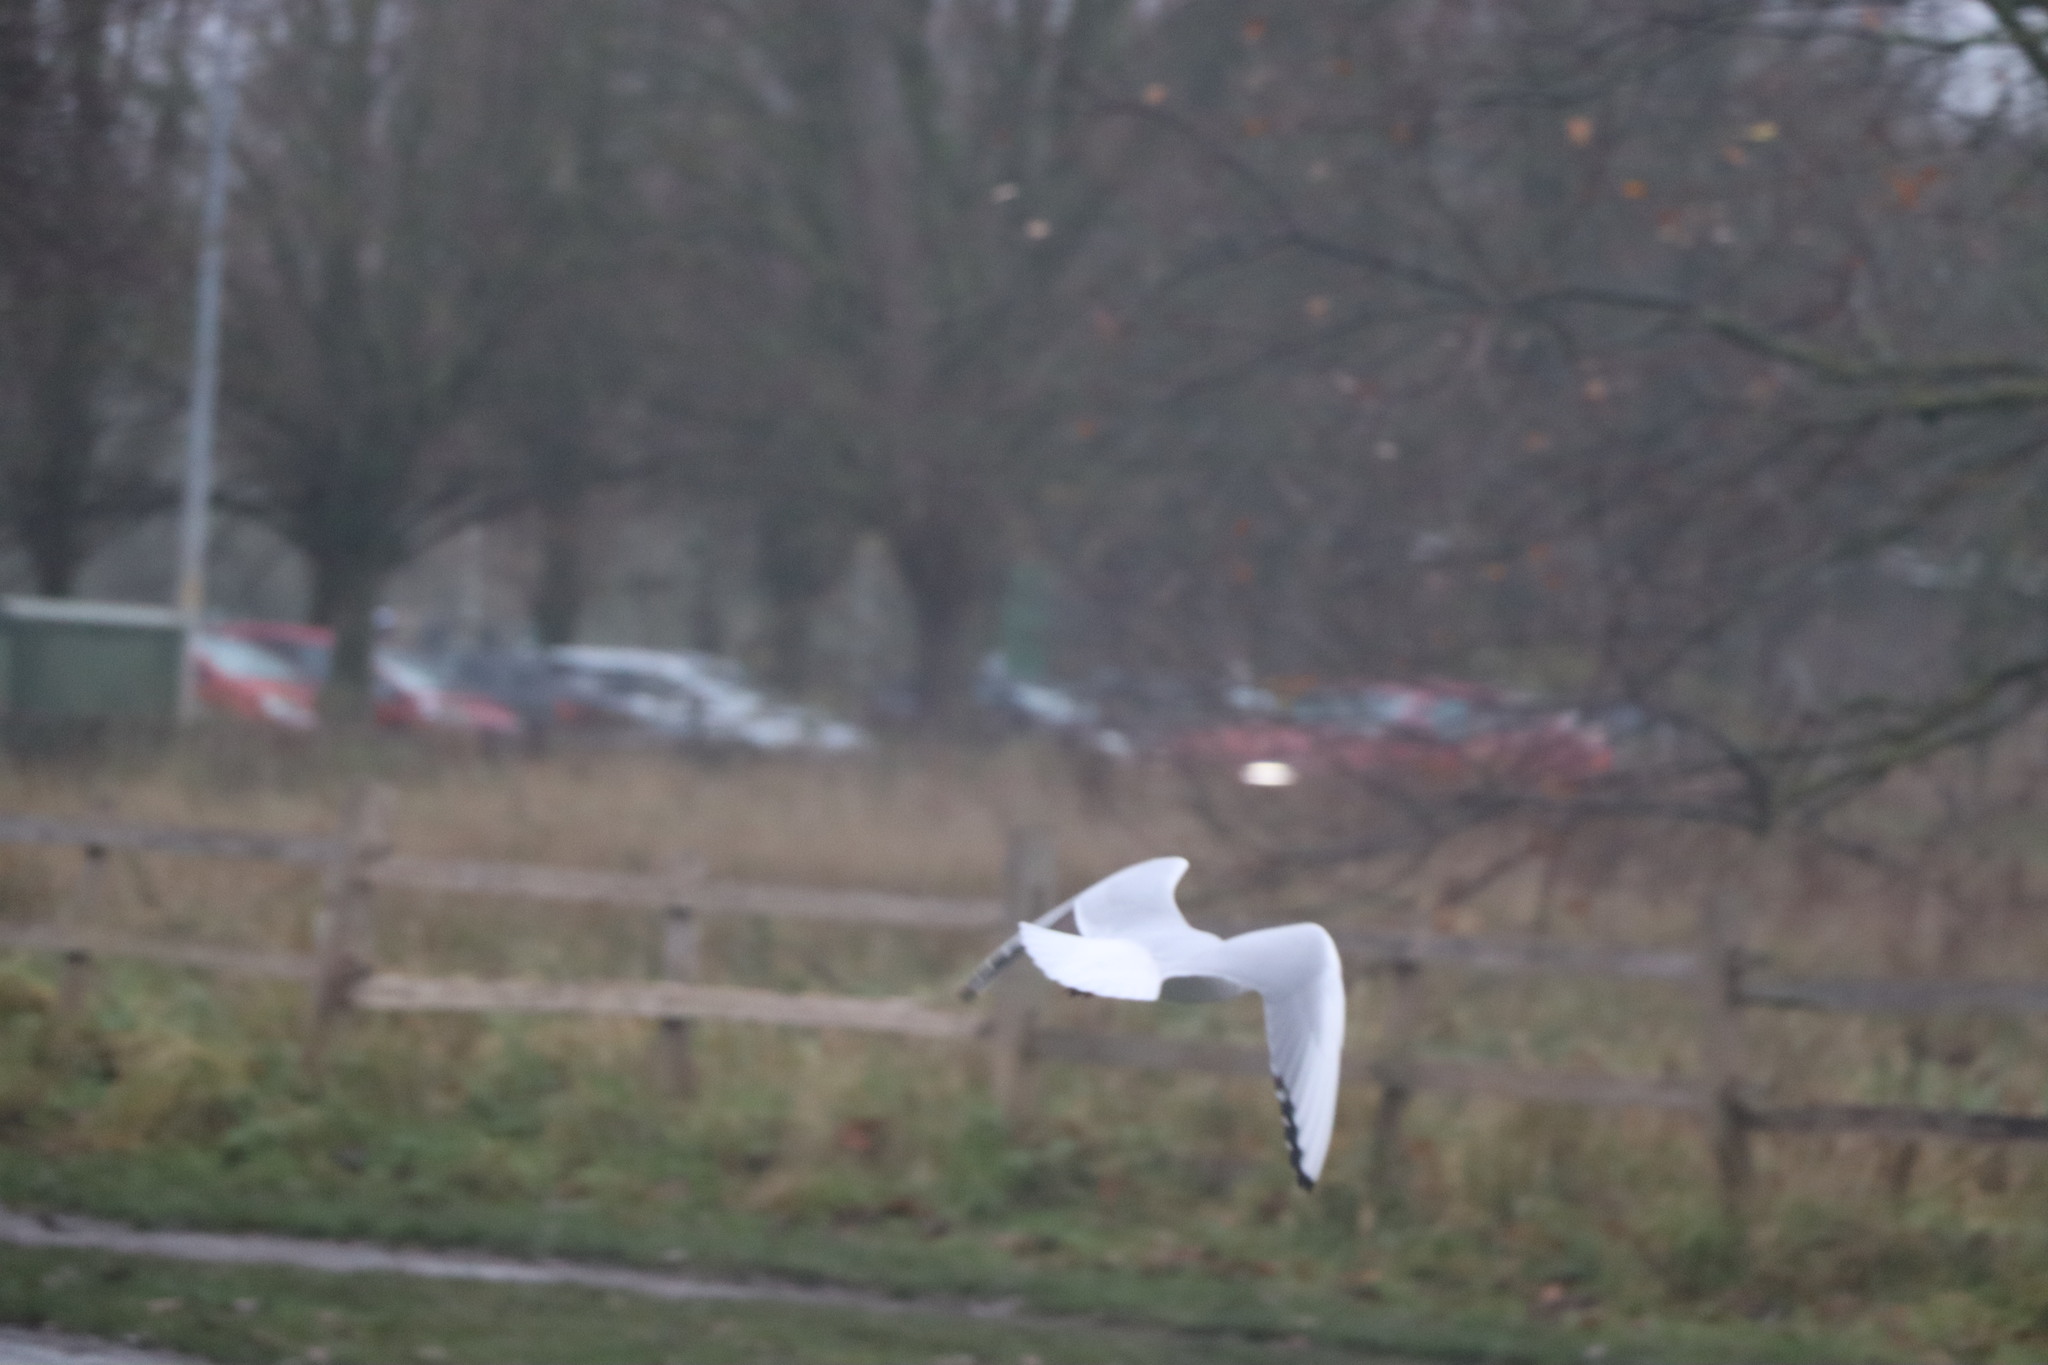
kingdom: Animalia
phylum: Chordata
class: Aves
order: Charadriiformes
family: Laridae
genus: Chroicocephalus
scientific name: Chroicocephalus ridibundus
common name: Black-headed gull
